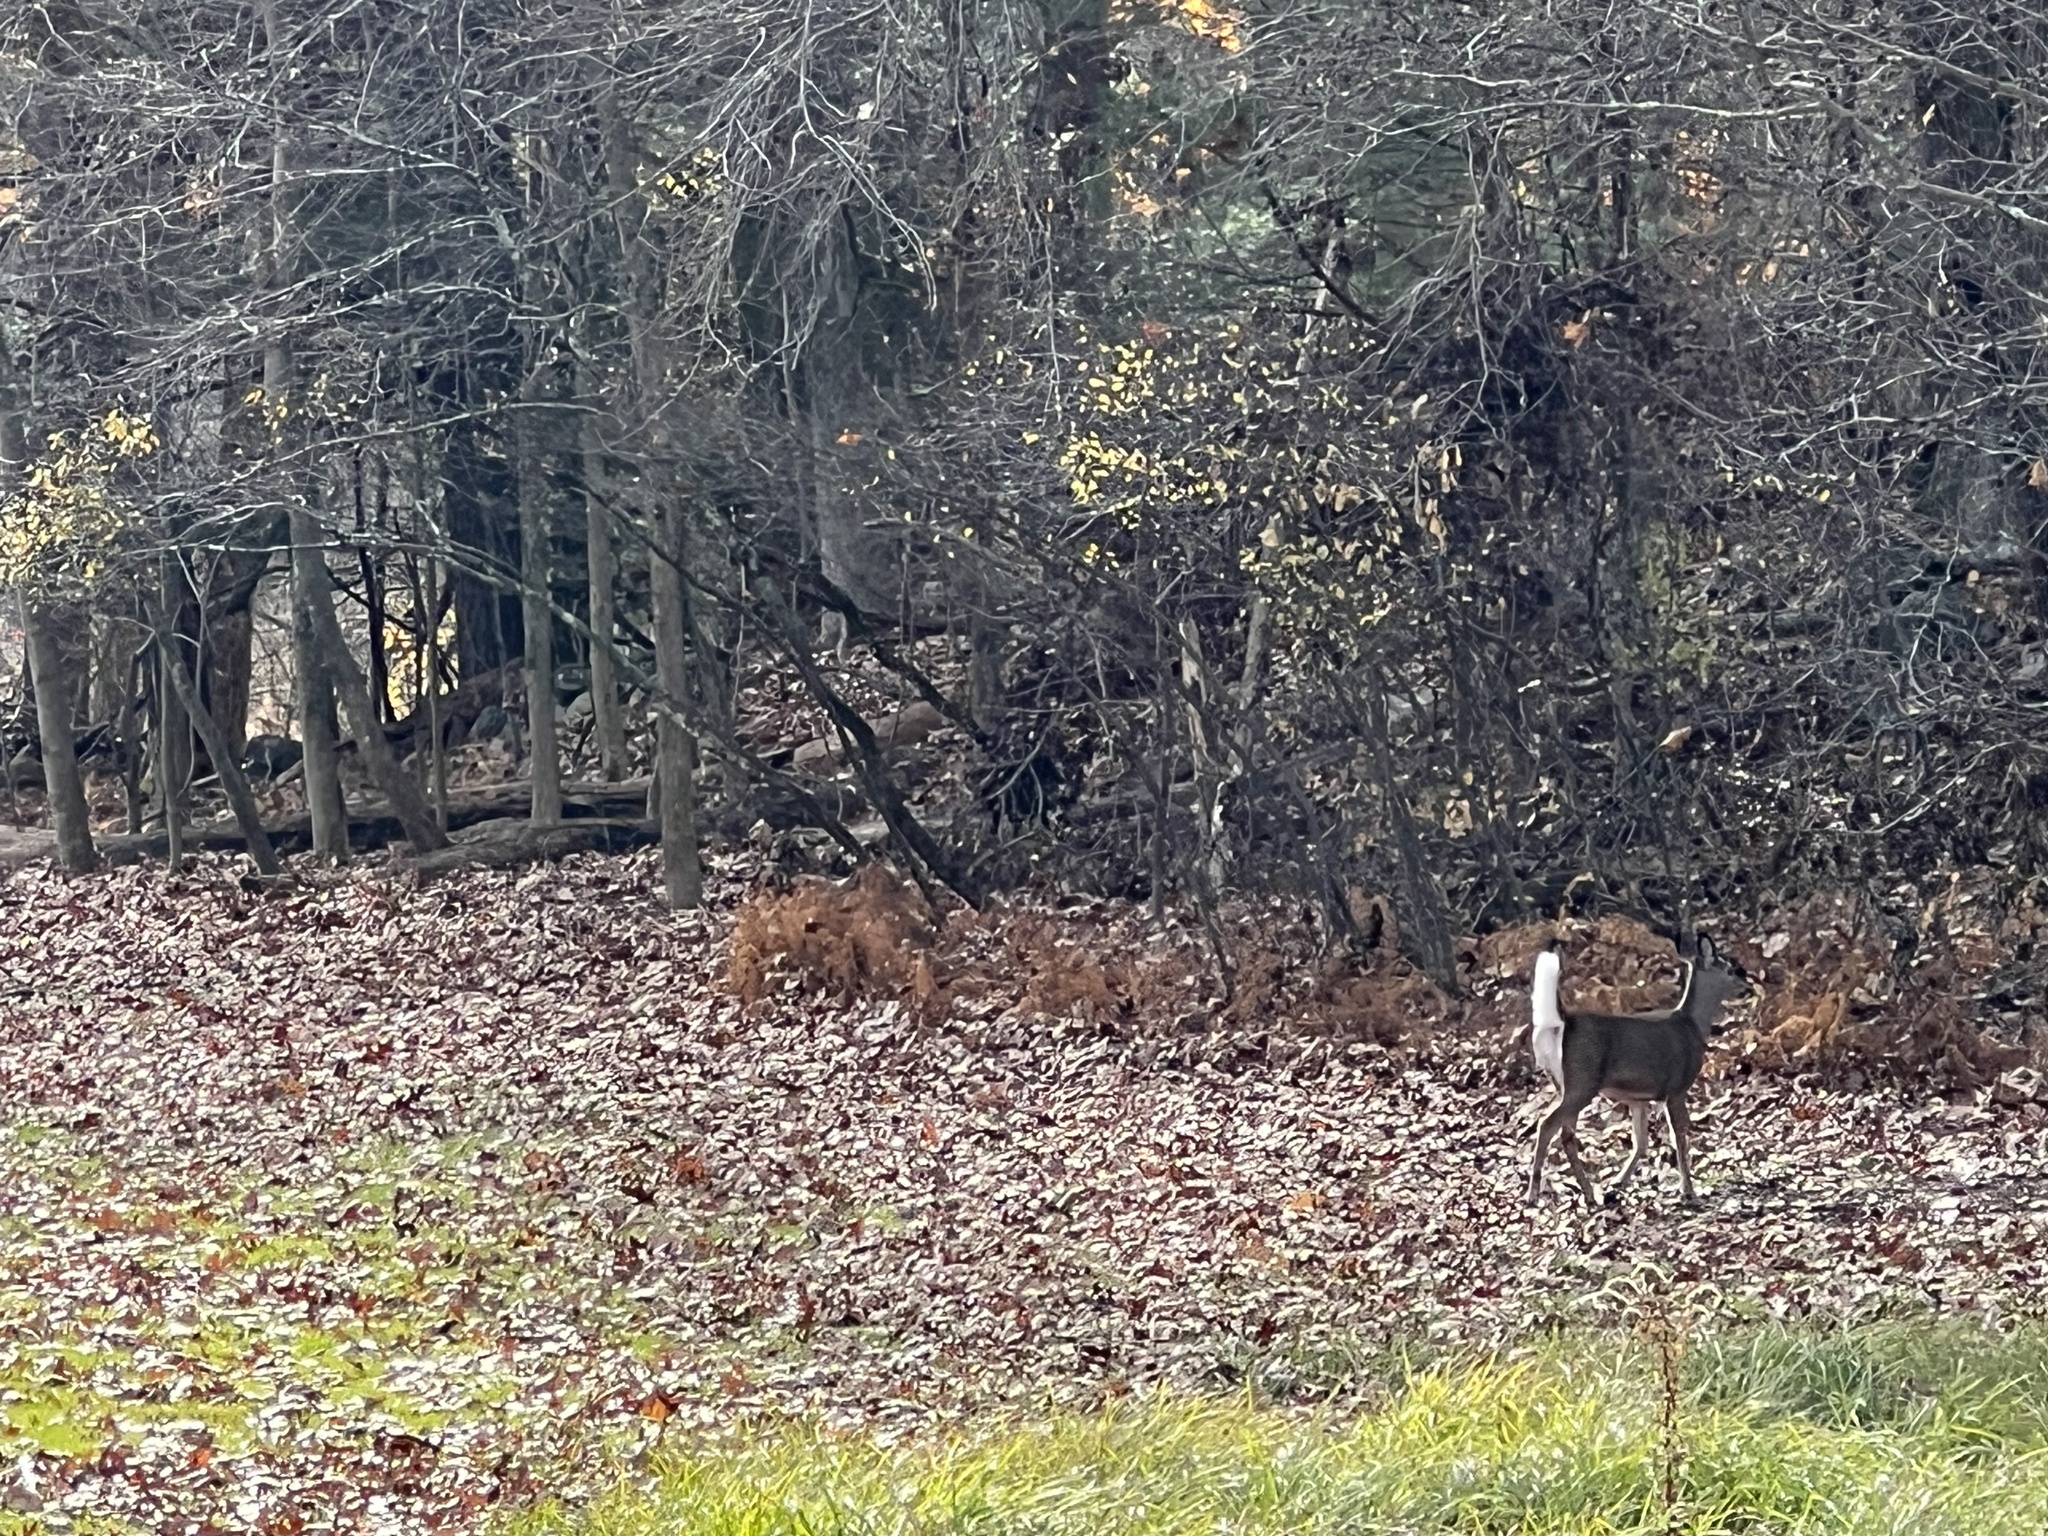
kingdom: Animalia
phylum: Chordata
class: Mammalia
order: Artiodactyla
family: Cervidae
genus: Odocoileus
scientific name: Odocoileus virginianus
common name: White-tailed deer
